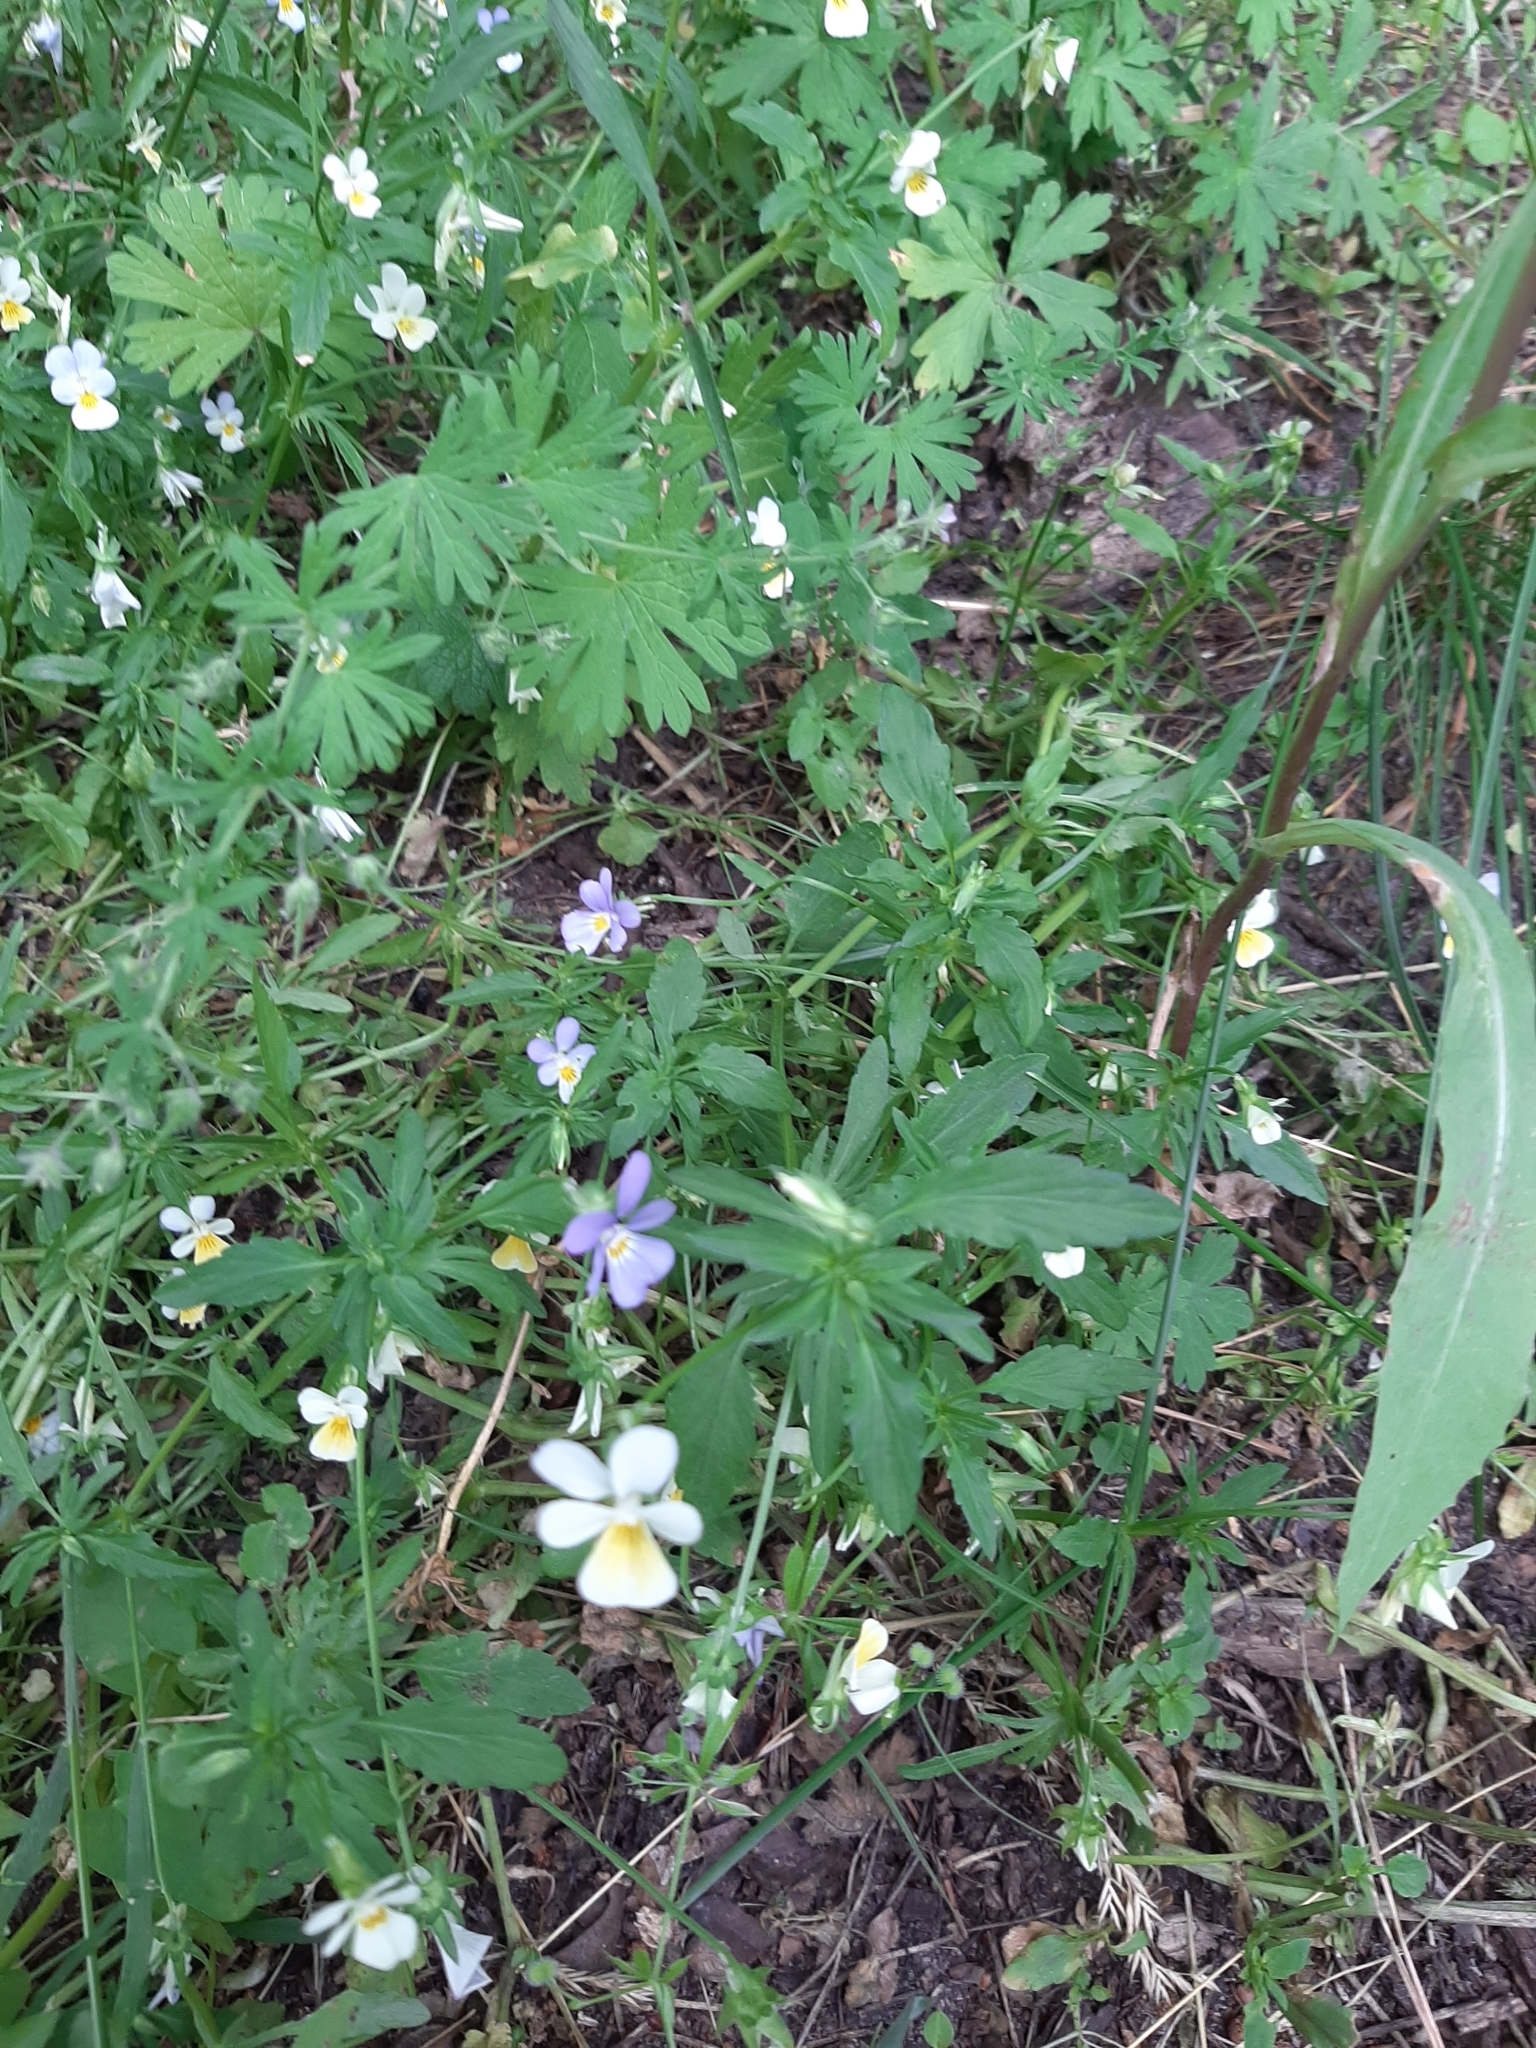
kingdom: Plantae
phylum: Tracheophyta
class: Magnoliopsida
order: Malpighiales
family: Violaceae
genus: Viola
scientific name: Viola tricolor
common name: Pansy
